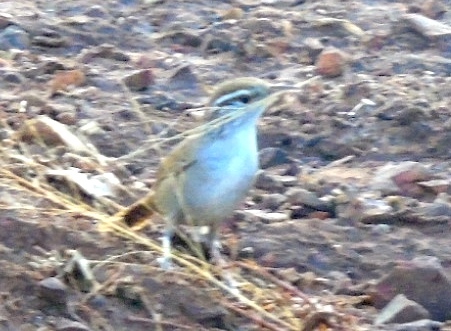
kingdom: Animalia
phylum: Chordata
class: Aves
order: Passeriformes
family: Troglodytidae
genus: Thryophilus
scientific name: Thryophilus sinaloa
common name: Sinaloa wren
